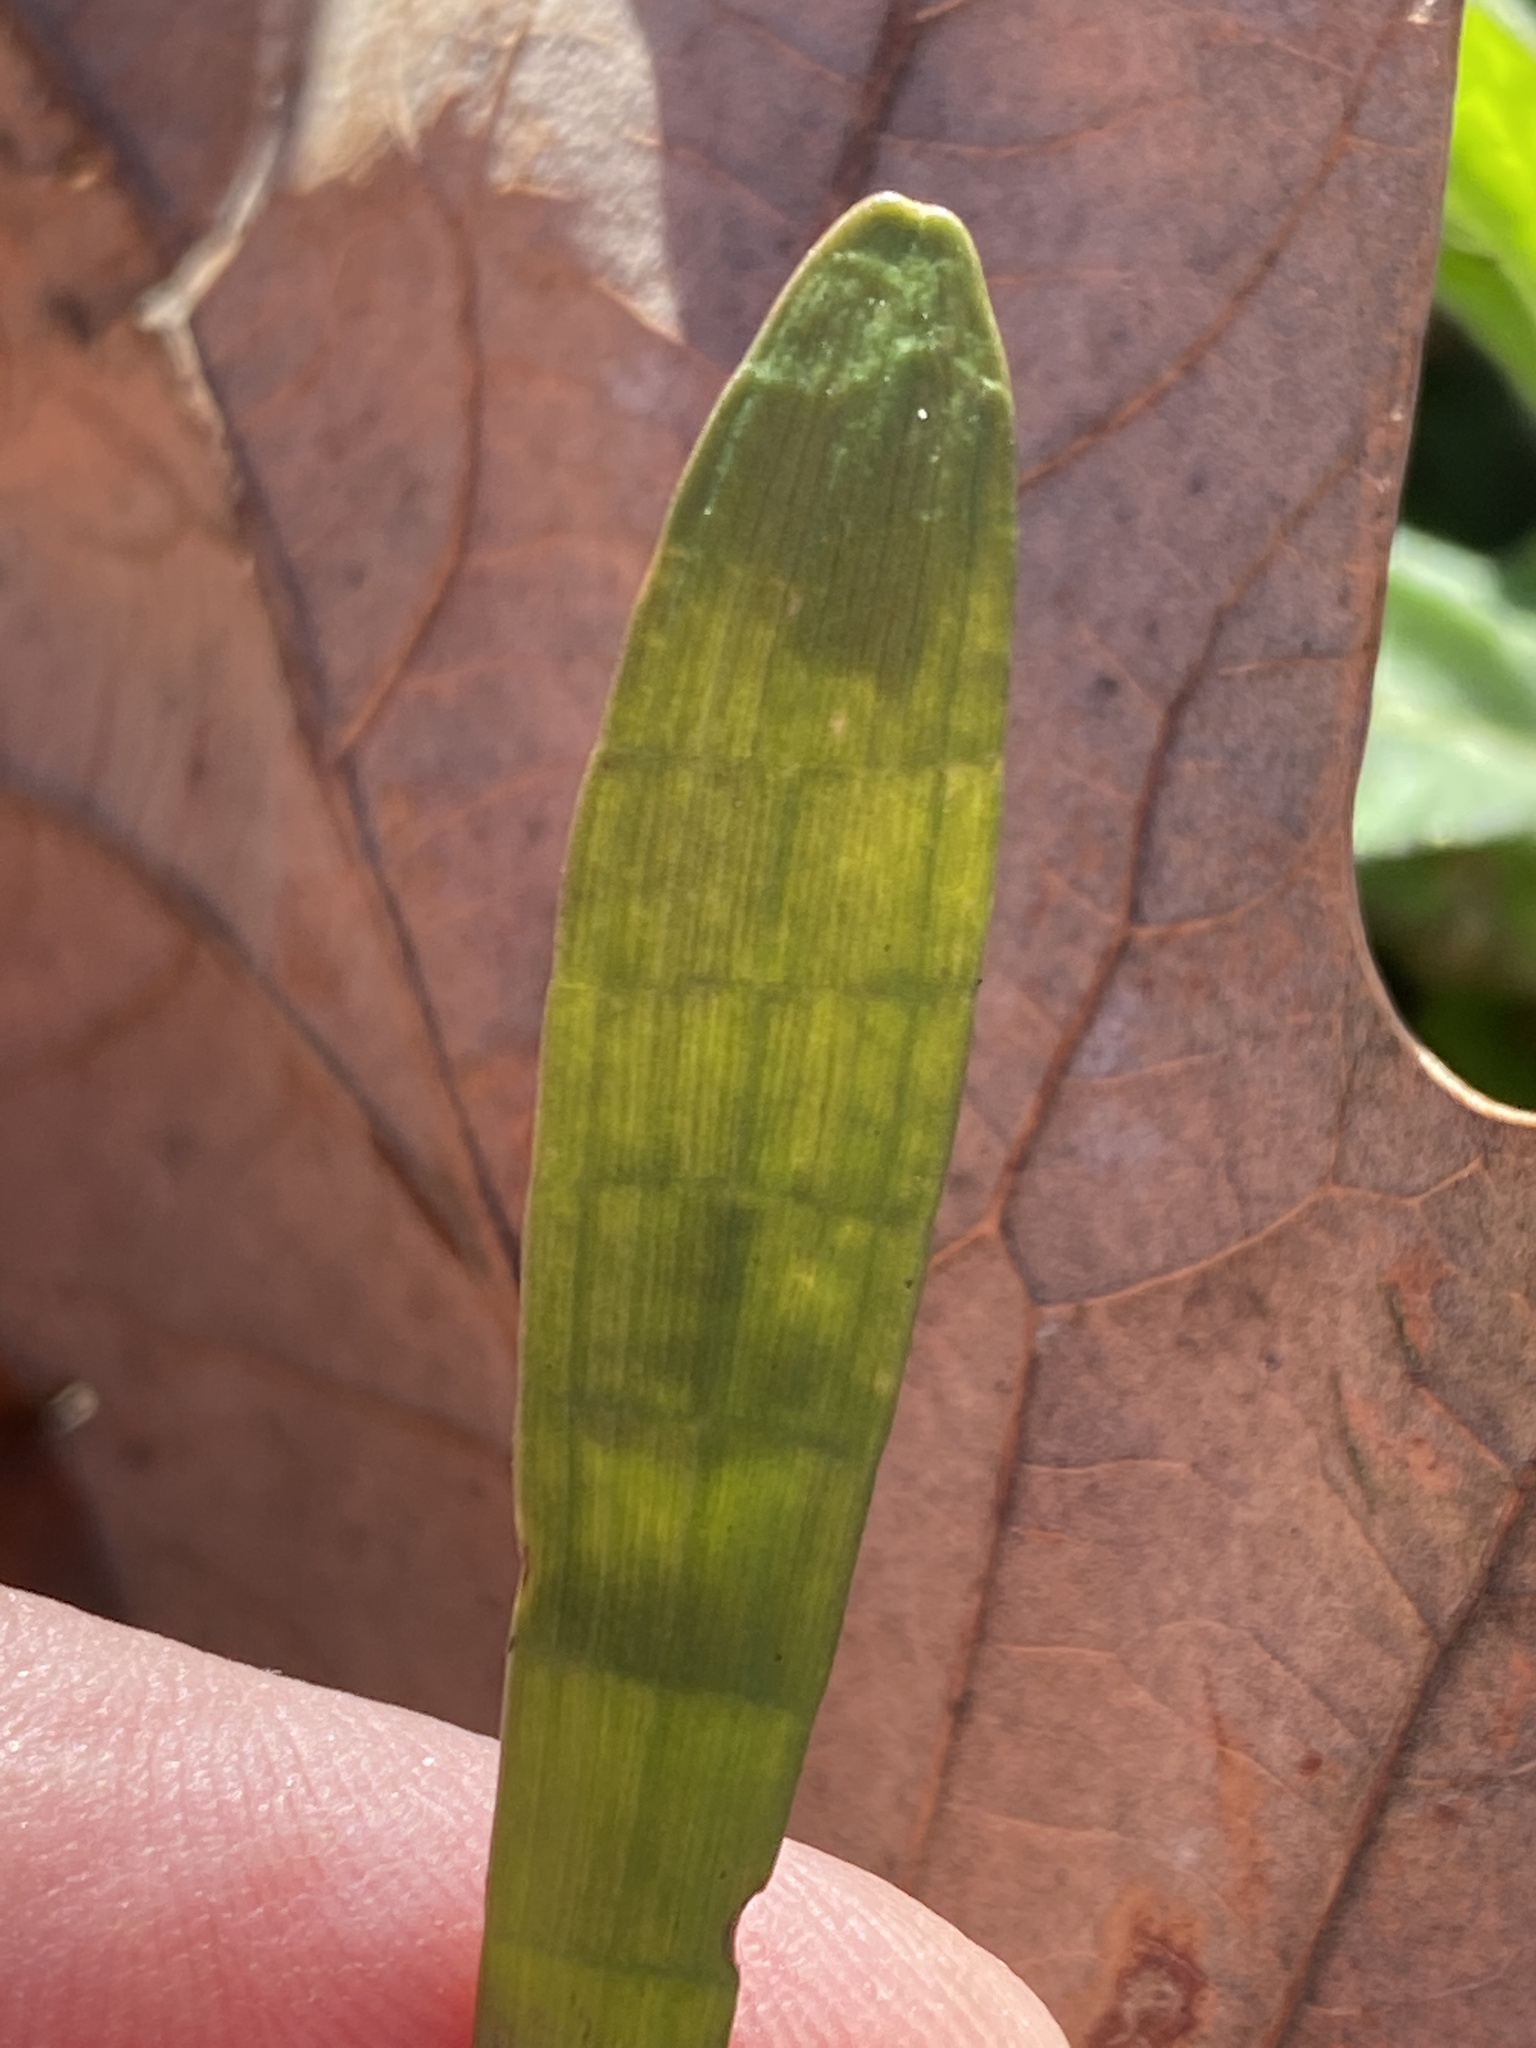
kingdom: Plantae
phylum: Tracheophyta
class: Magnoliopsida
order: Apiales
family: Apiaceae
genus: Lilaeopsis
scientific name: Lilaeopsis carolinensis
